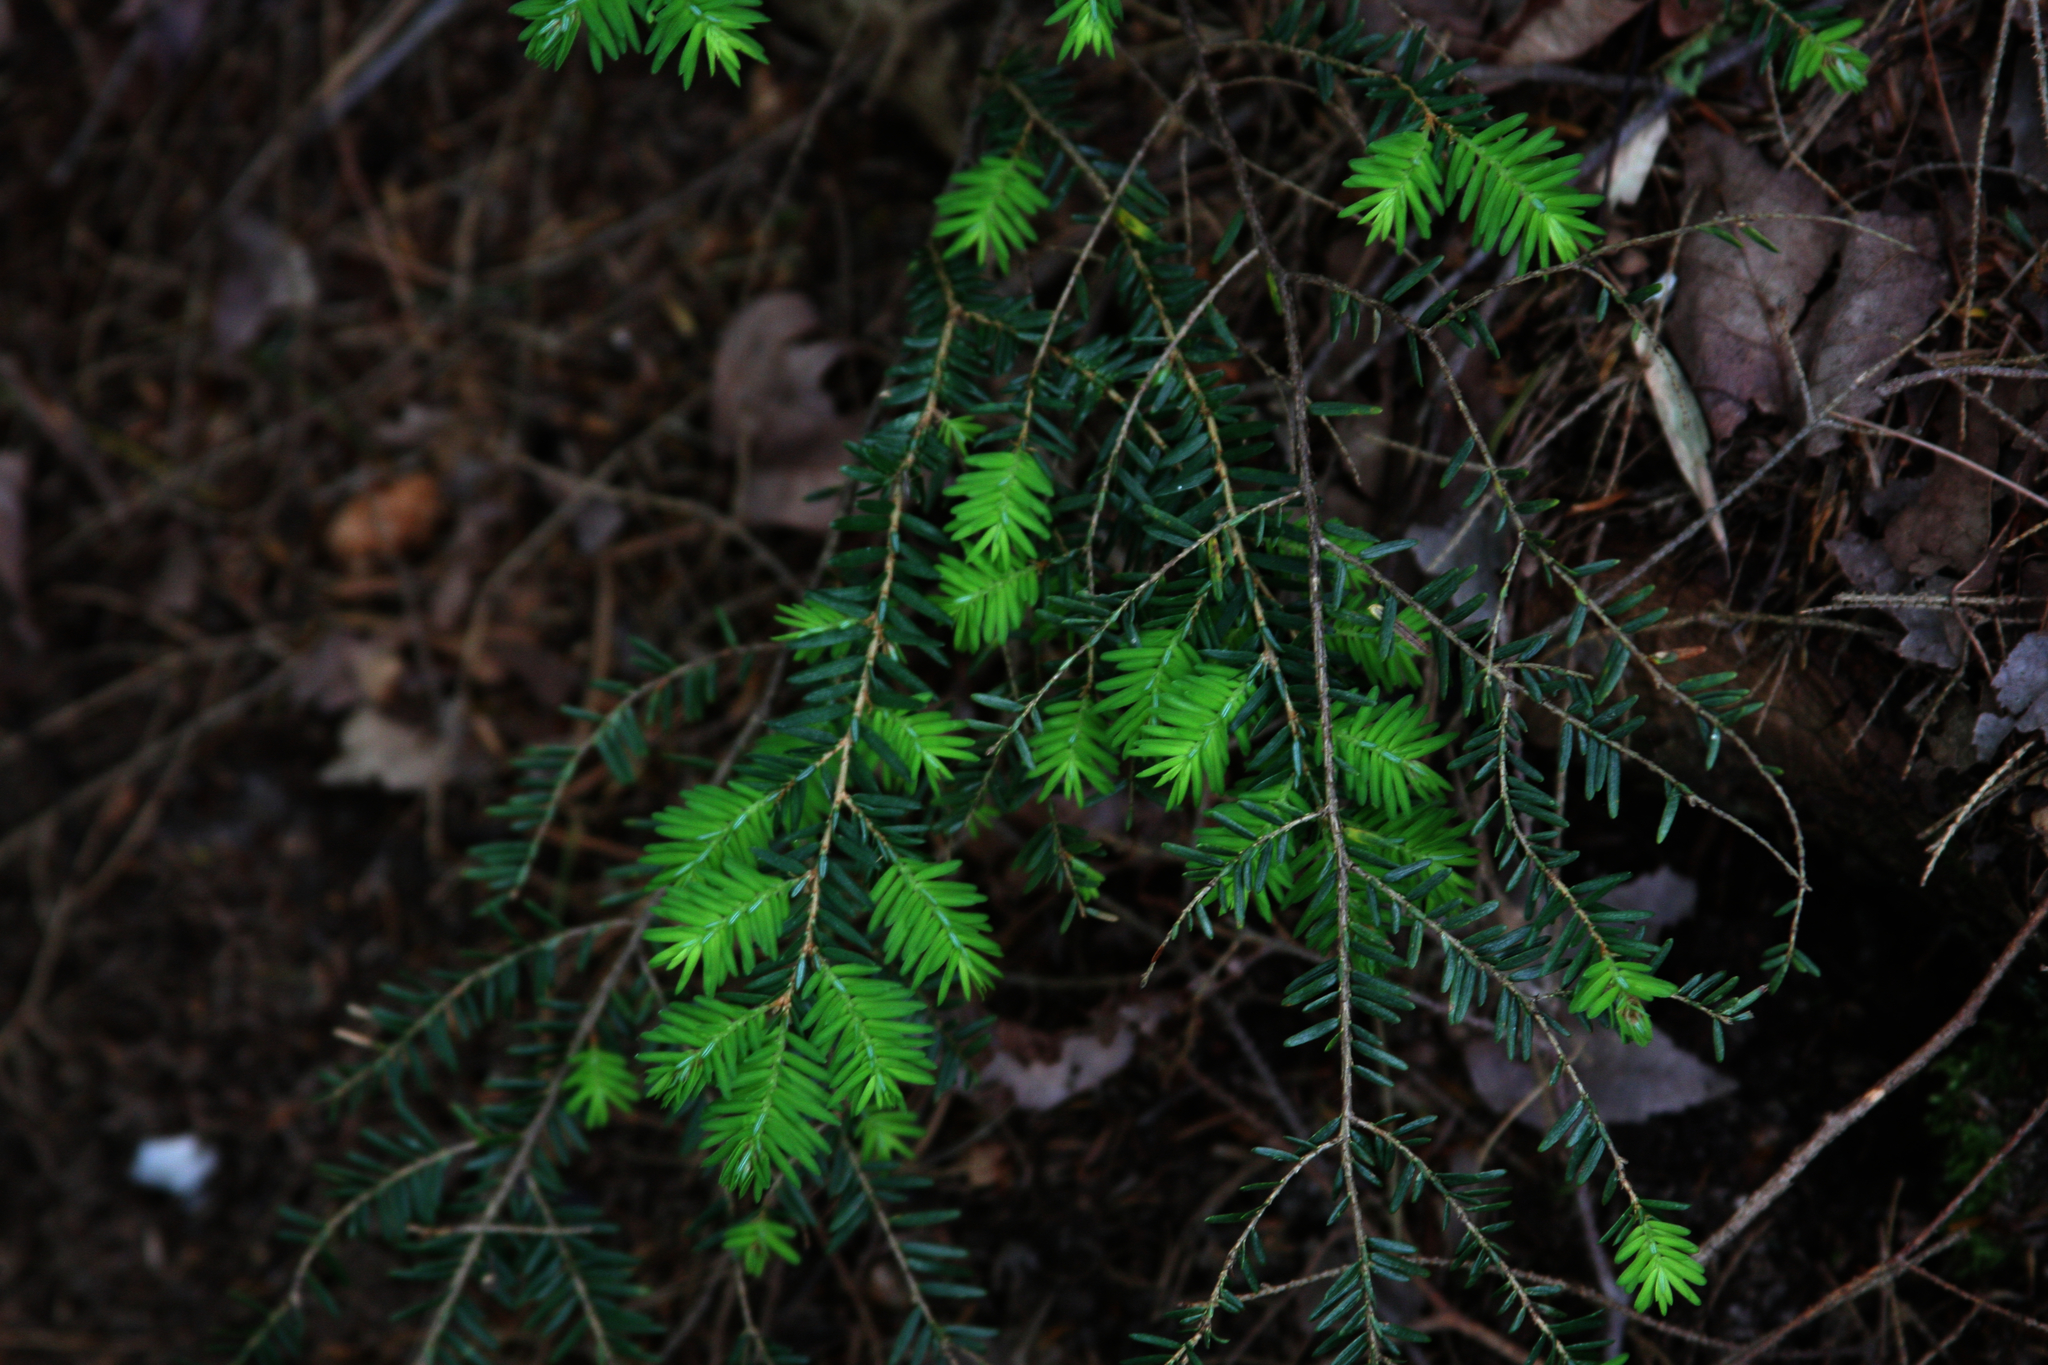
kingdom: Plantae
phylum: Tracheophyta
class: Pinopsida
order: Pinales
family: Pinaceae
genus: Tsuga
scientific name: Tsuga canadensis
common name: Eastern hemlock
